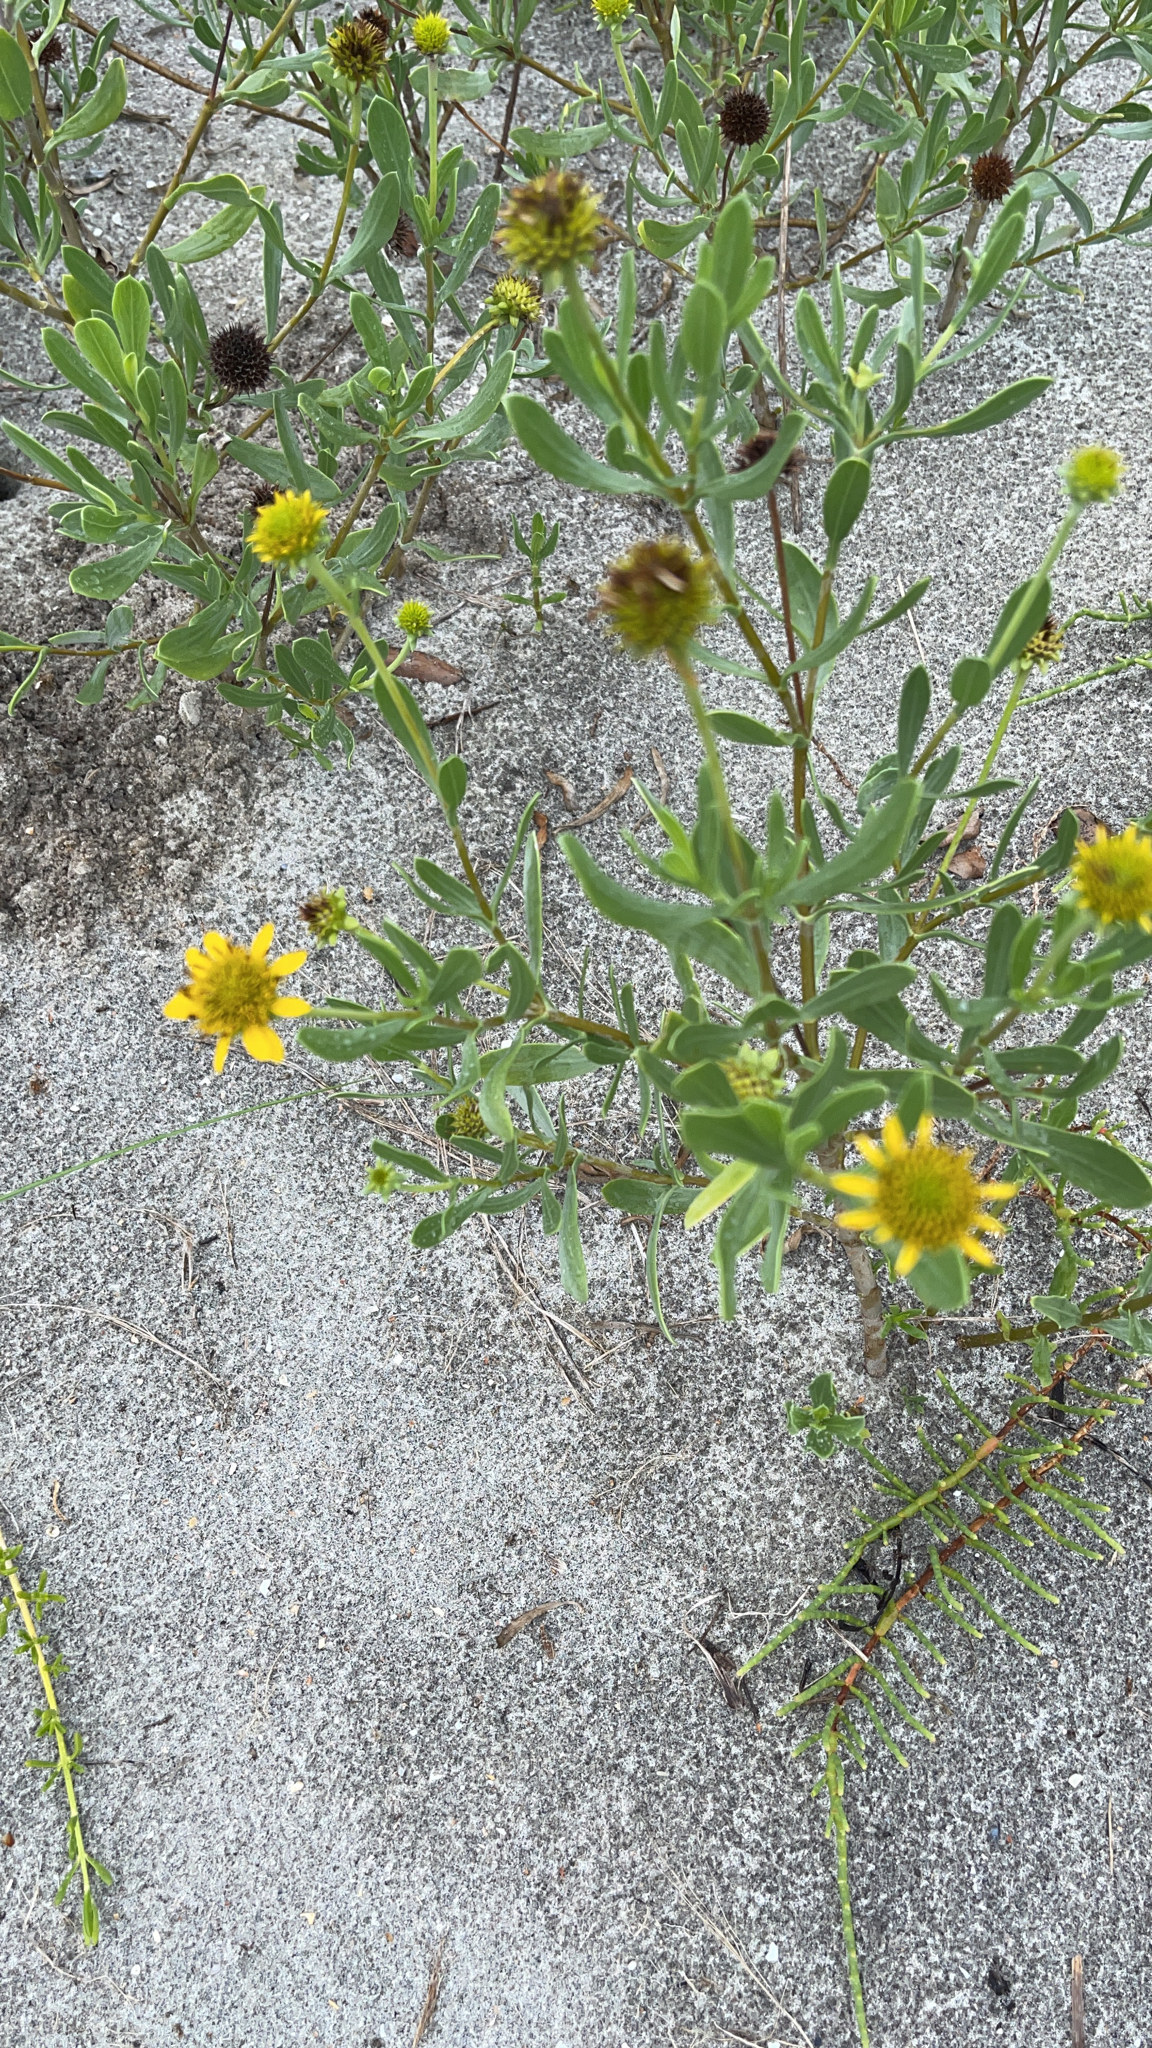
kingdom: Plantae
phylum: Tracheophyta
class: Magnoliopsida
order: Asterales
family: Asteraceae
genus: Borrichia
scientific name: Borrichia frutescens
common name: Sea oxeye
